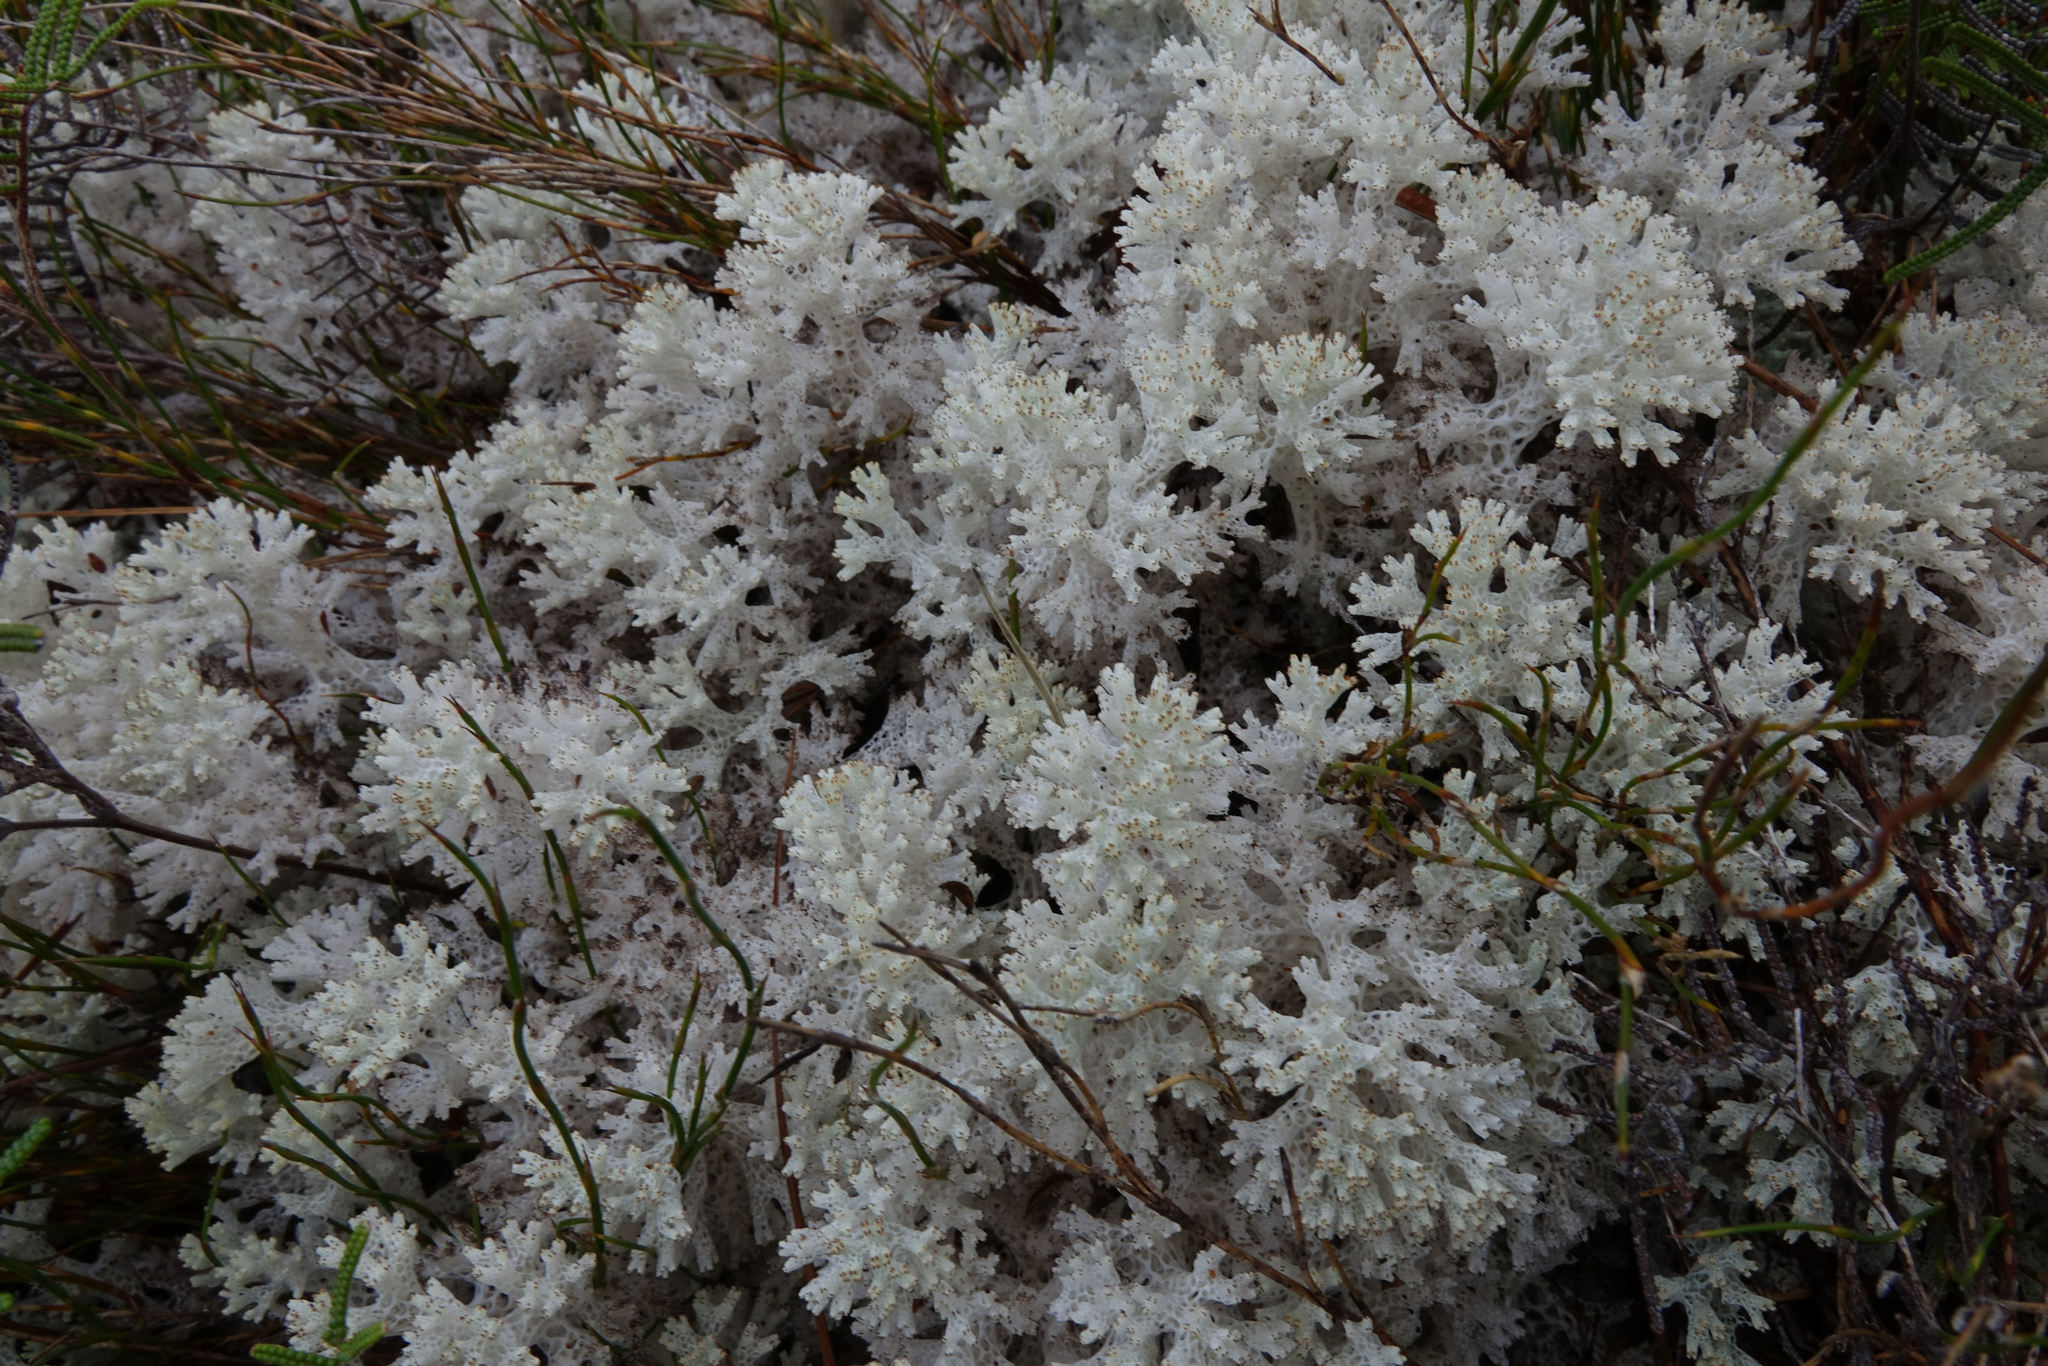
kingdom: Fungi
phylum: Ascomycota
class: Lecanoromycetes
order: Lecanorales
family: Cladoniaceae
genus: Pulchrocladia
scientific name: Pulchrocladia retipora
